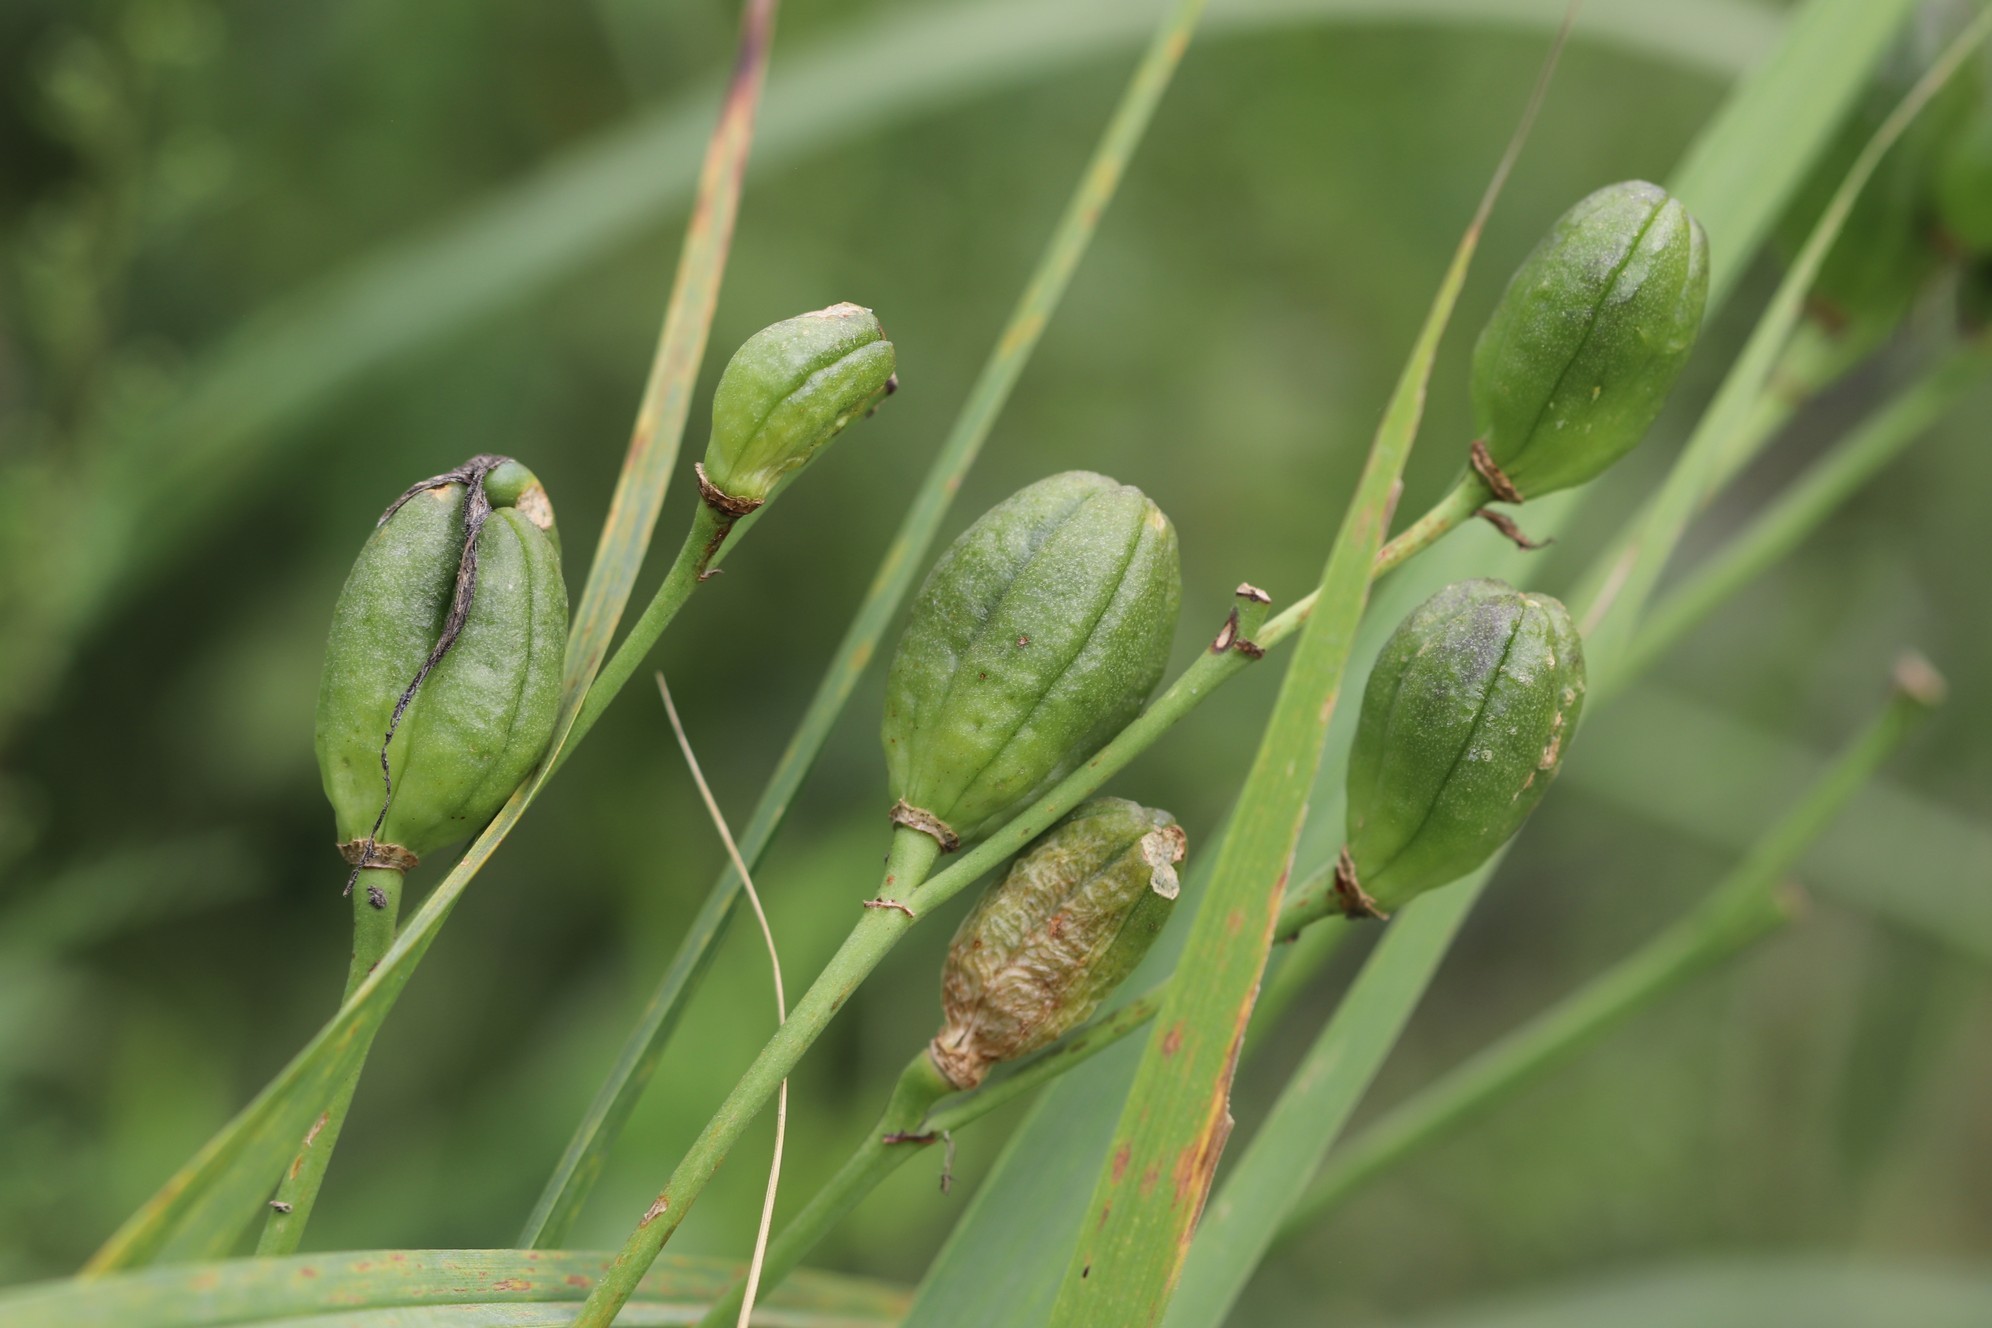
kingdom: Plantae
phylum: Tracheophyta
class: Liliopsida
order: Asparagales
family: Asphodelaceae
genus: Hemerocallis
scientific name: Hemerocallis minor
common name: Small daylily
